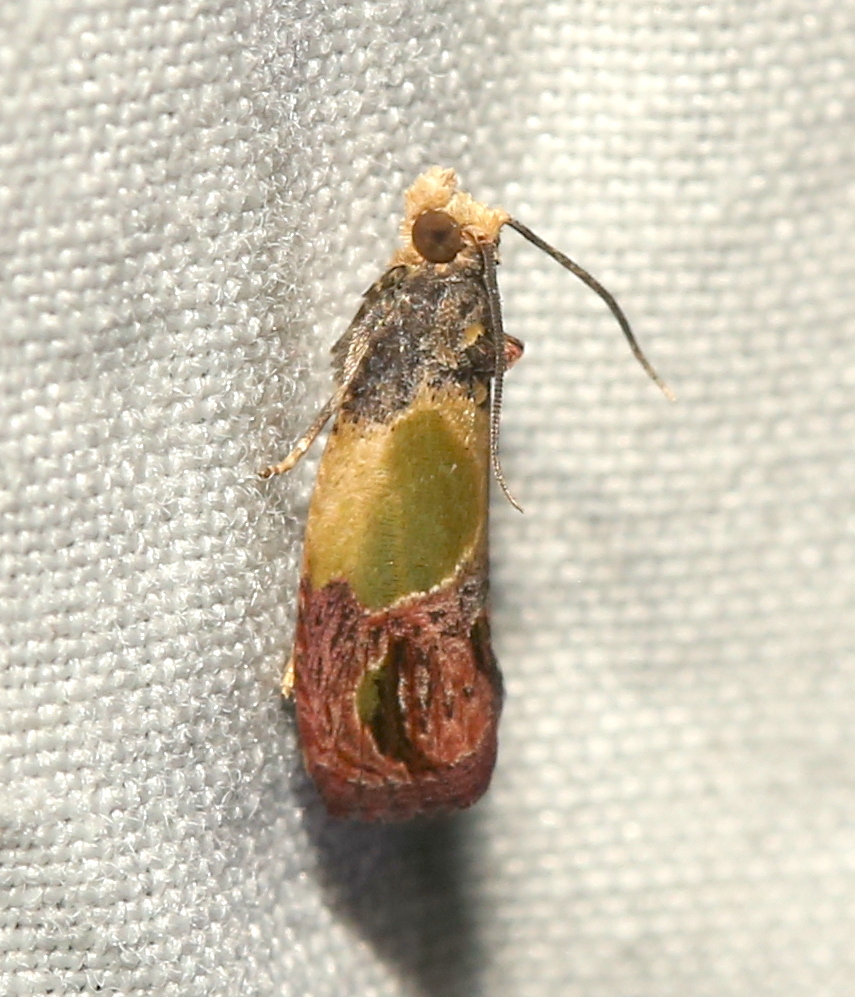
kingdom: Animalia
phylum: Arthropoda
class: Insecta
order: Lepidoptera
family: Tortricidae
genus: Eumarozia
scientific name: Eumarozia malachitana
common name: Sculptured moth
